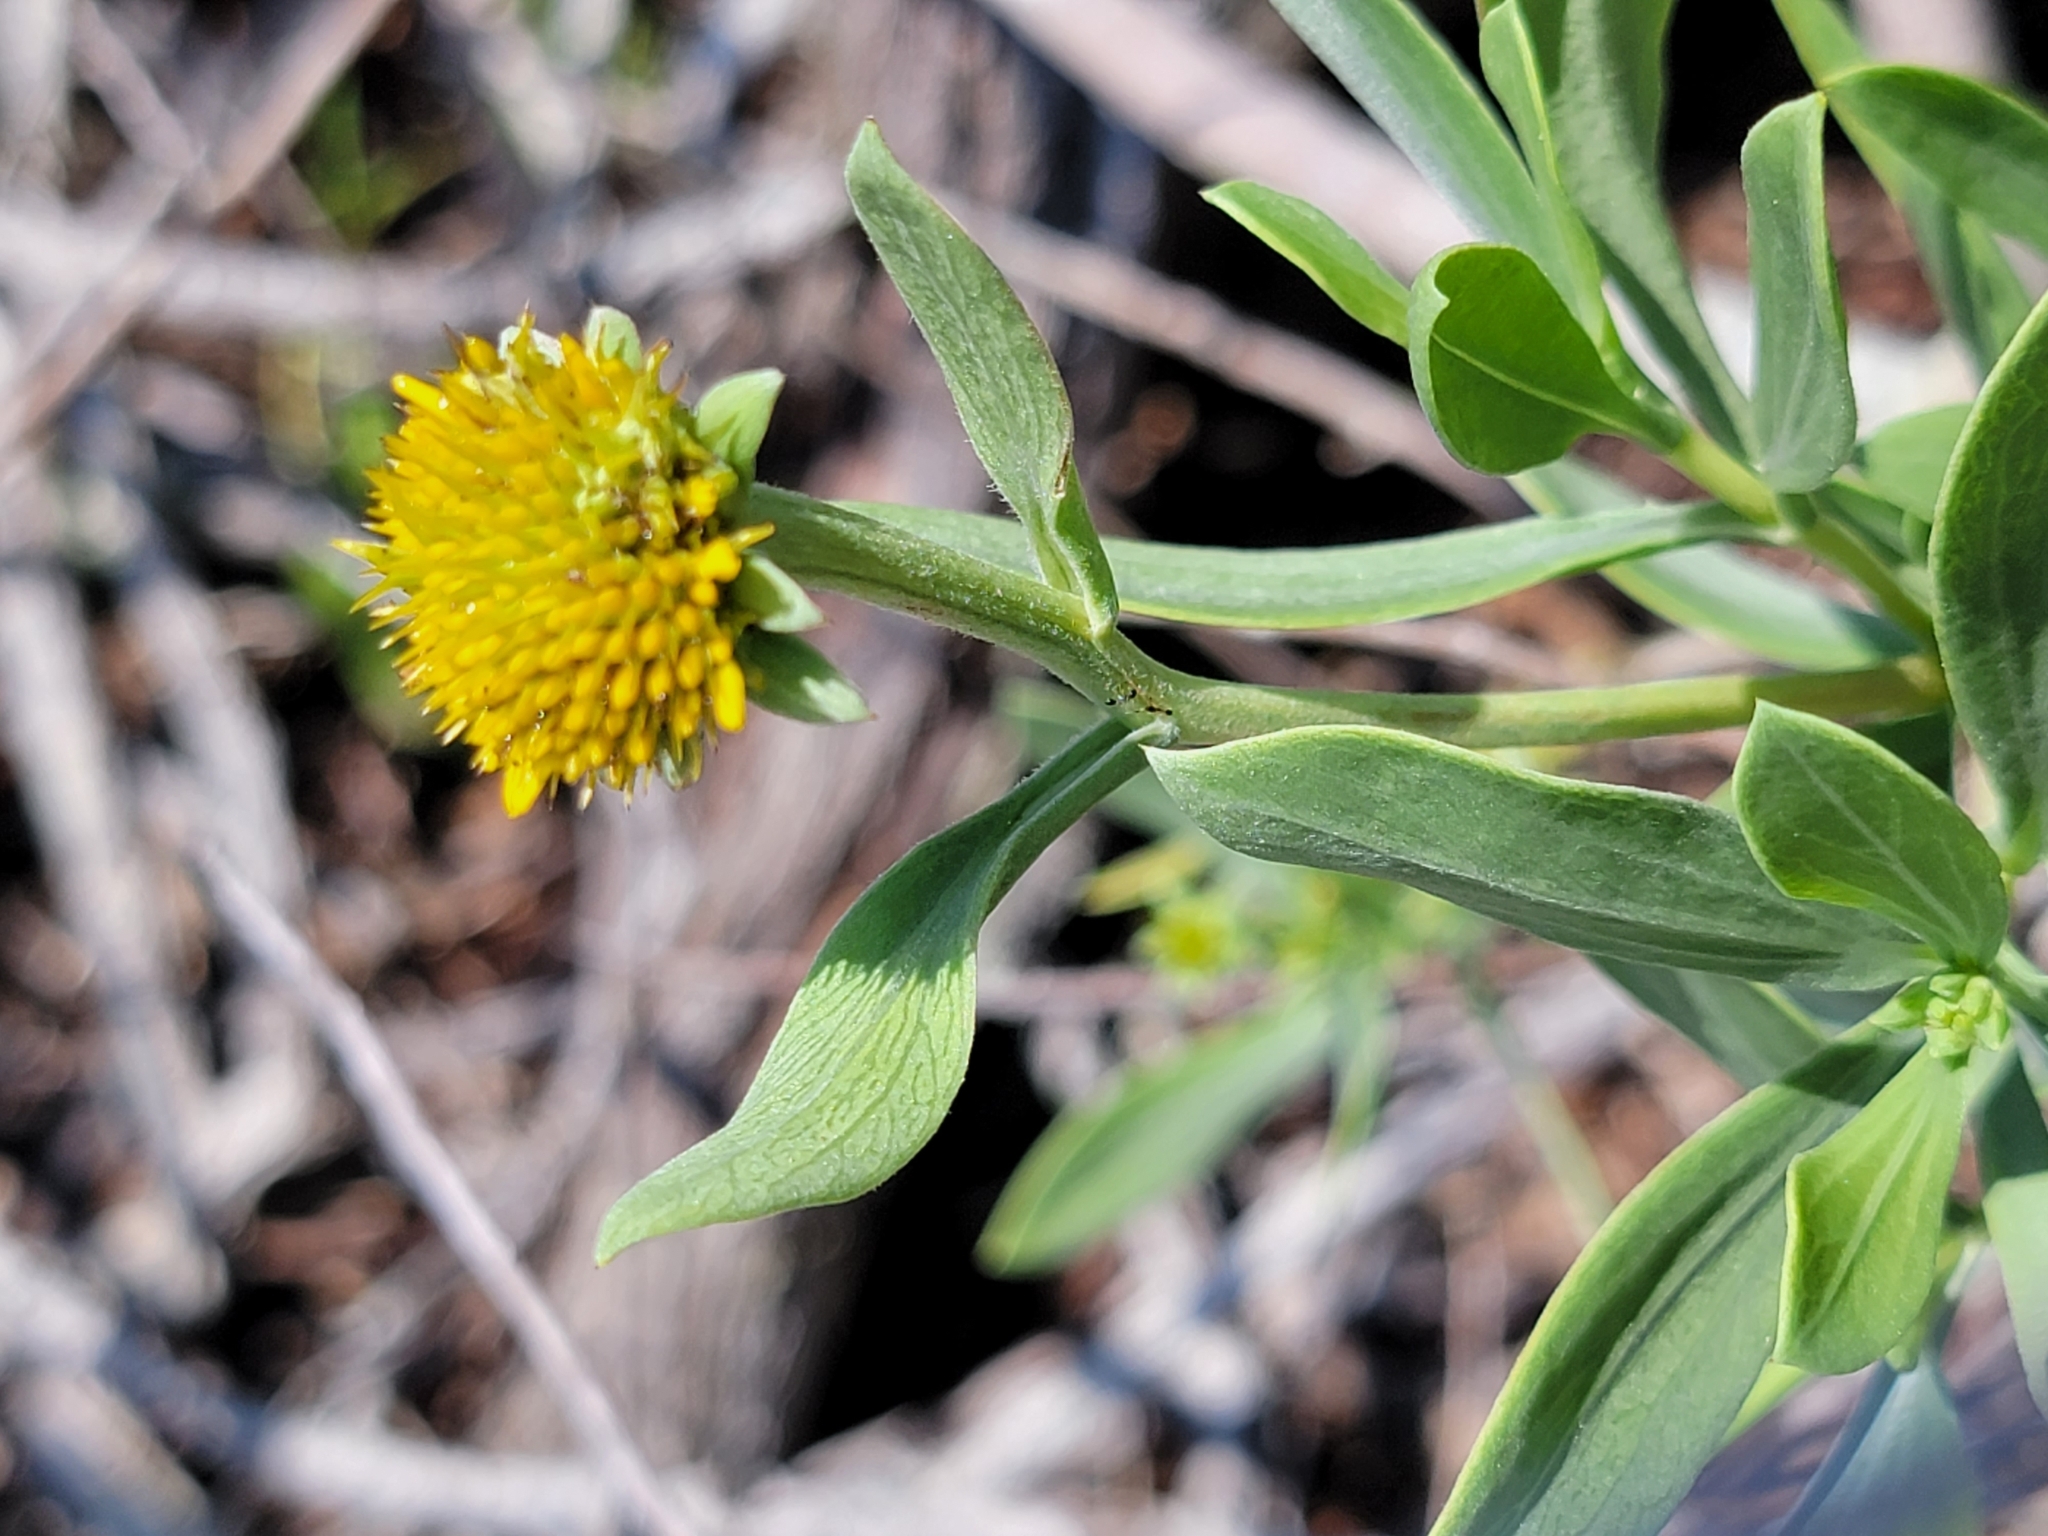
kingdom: Plantae
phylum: Tracheophyta
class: Magnoliopsida
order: Asterales
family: Asteraceae
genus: Borrichia
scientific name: Borrichia frutescens
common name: Sea oxeye
